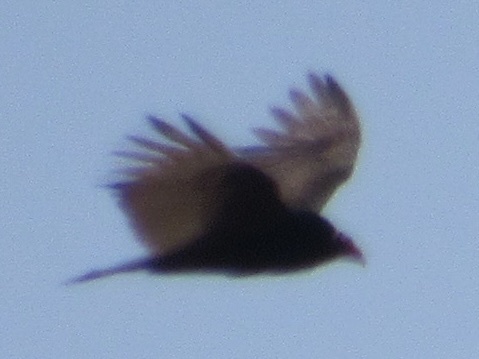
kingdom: Animalia
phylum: Chordata
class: Aves
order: Accipitriformes
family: Cathartidae
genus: Cathartes
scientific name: Cathartes aura
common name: Turkey vulture
